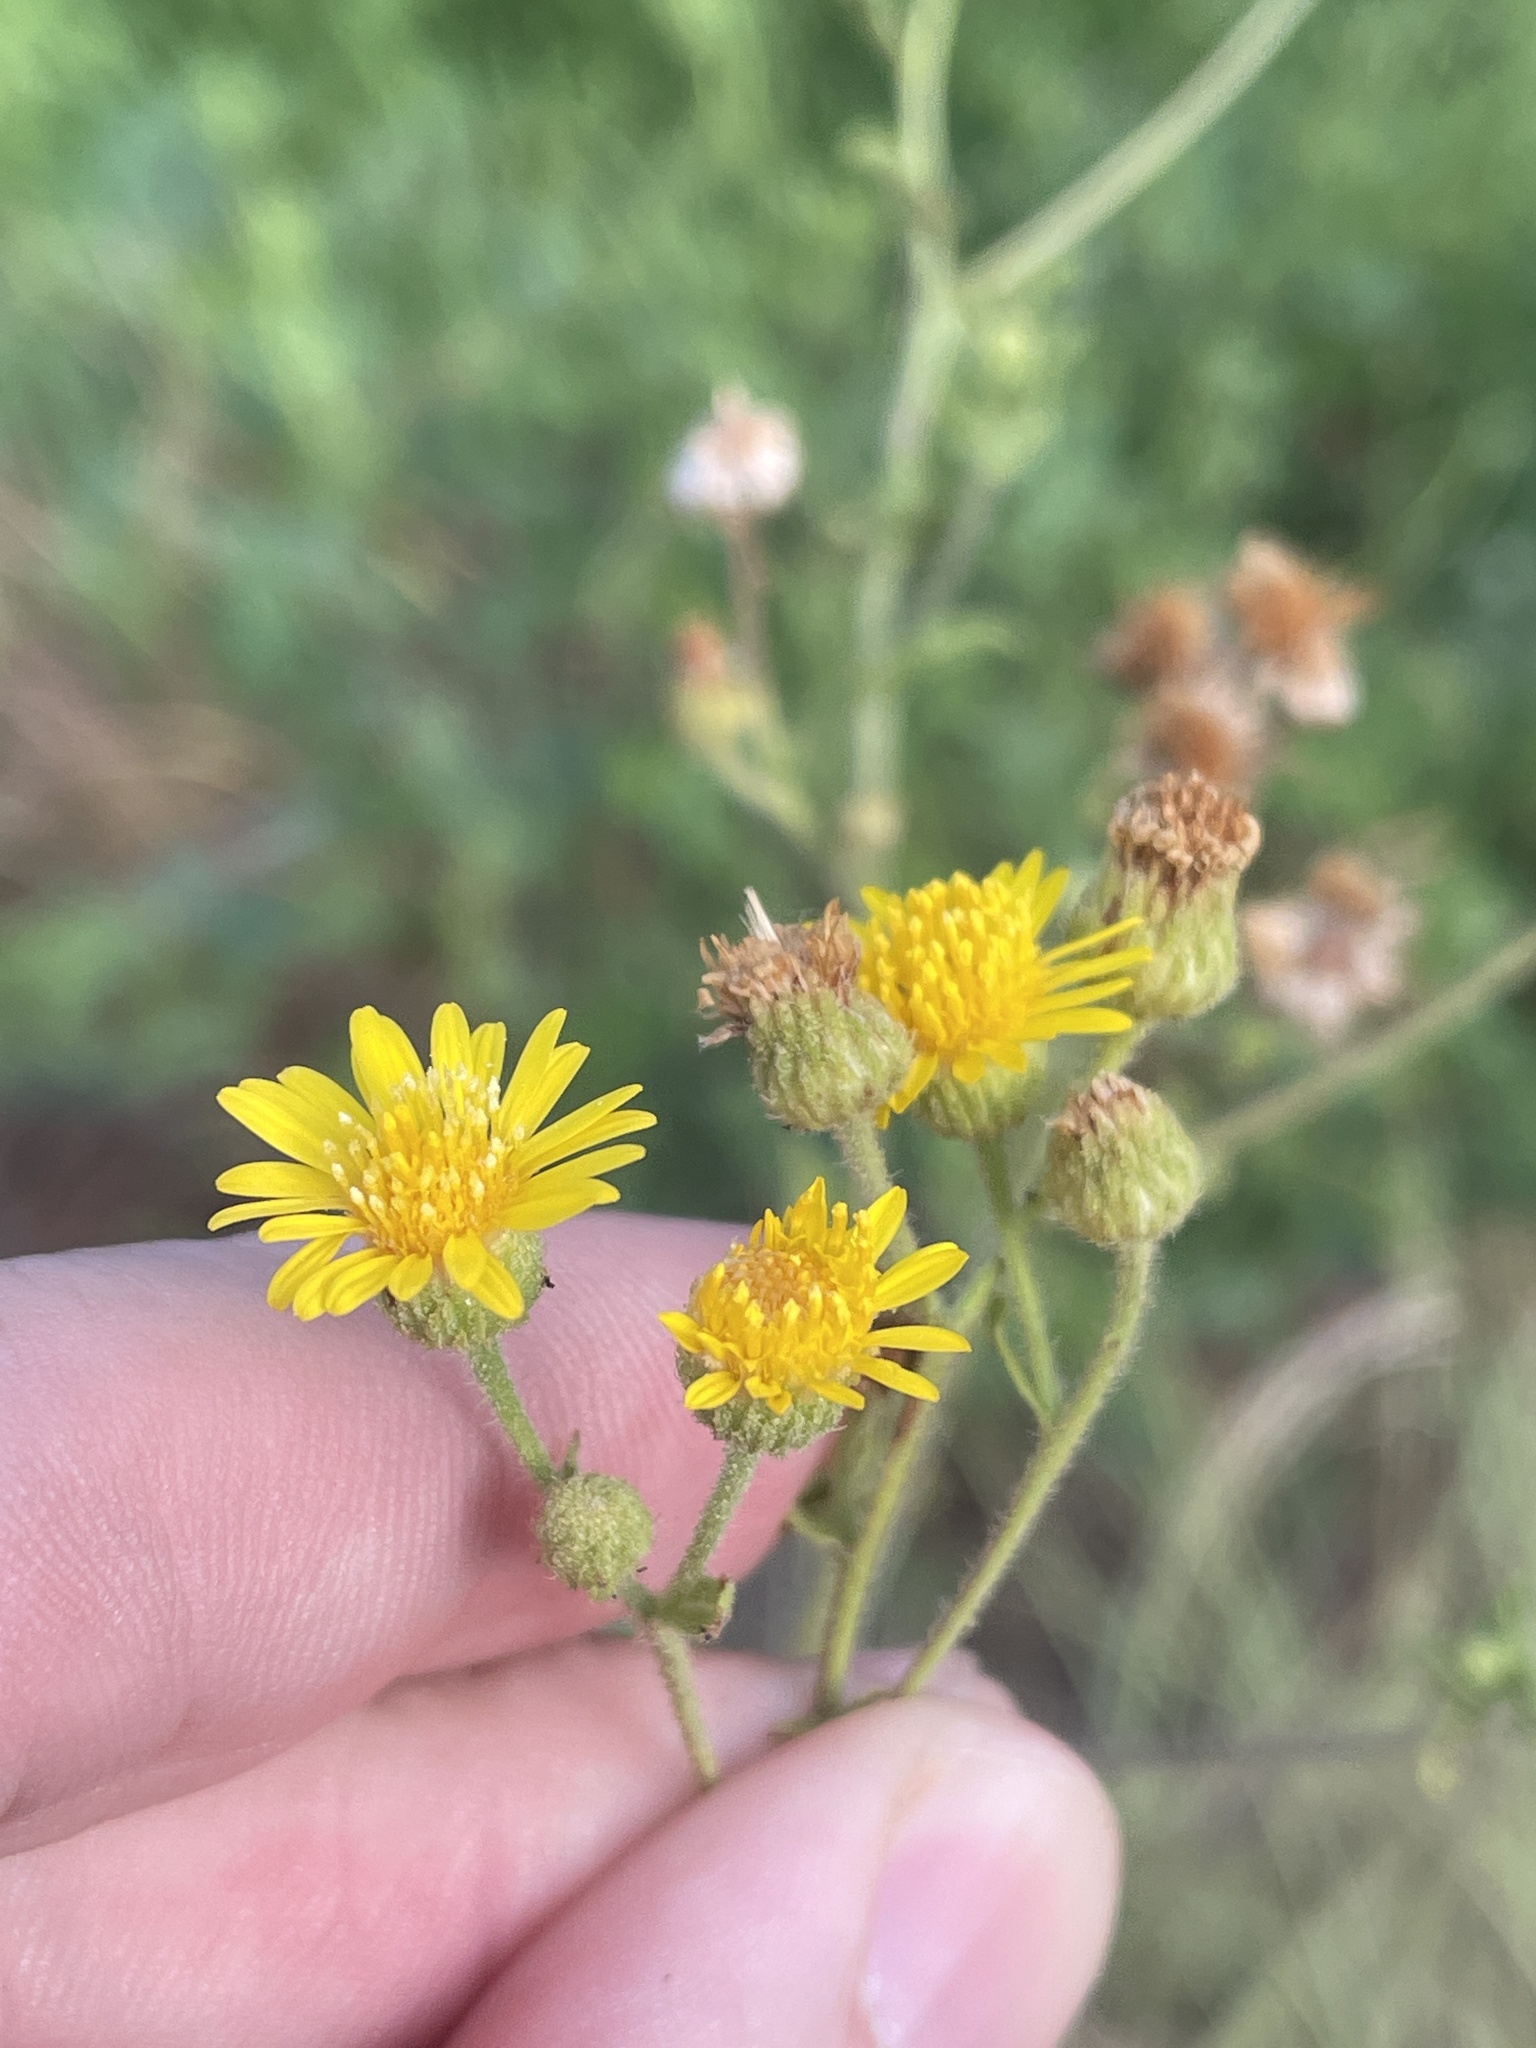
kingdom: Plantae
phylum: Tracheophyta
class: Magnoliopsida
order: Asterales
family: Asteraceae
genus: Heterotheca
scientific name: Heterotheca subaxillaris
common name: Camphorweed
